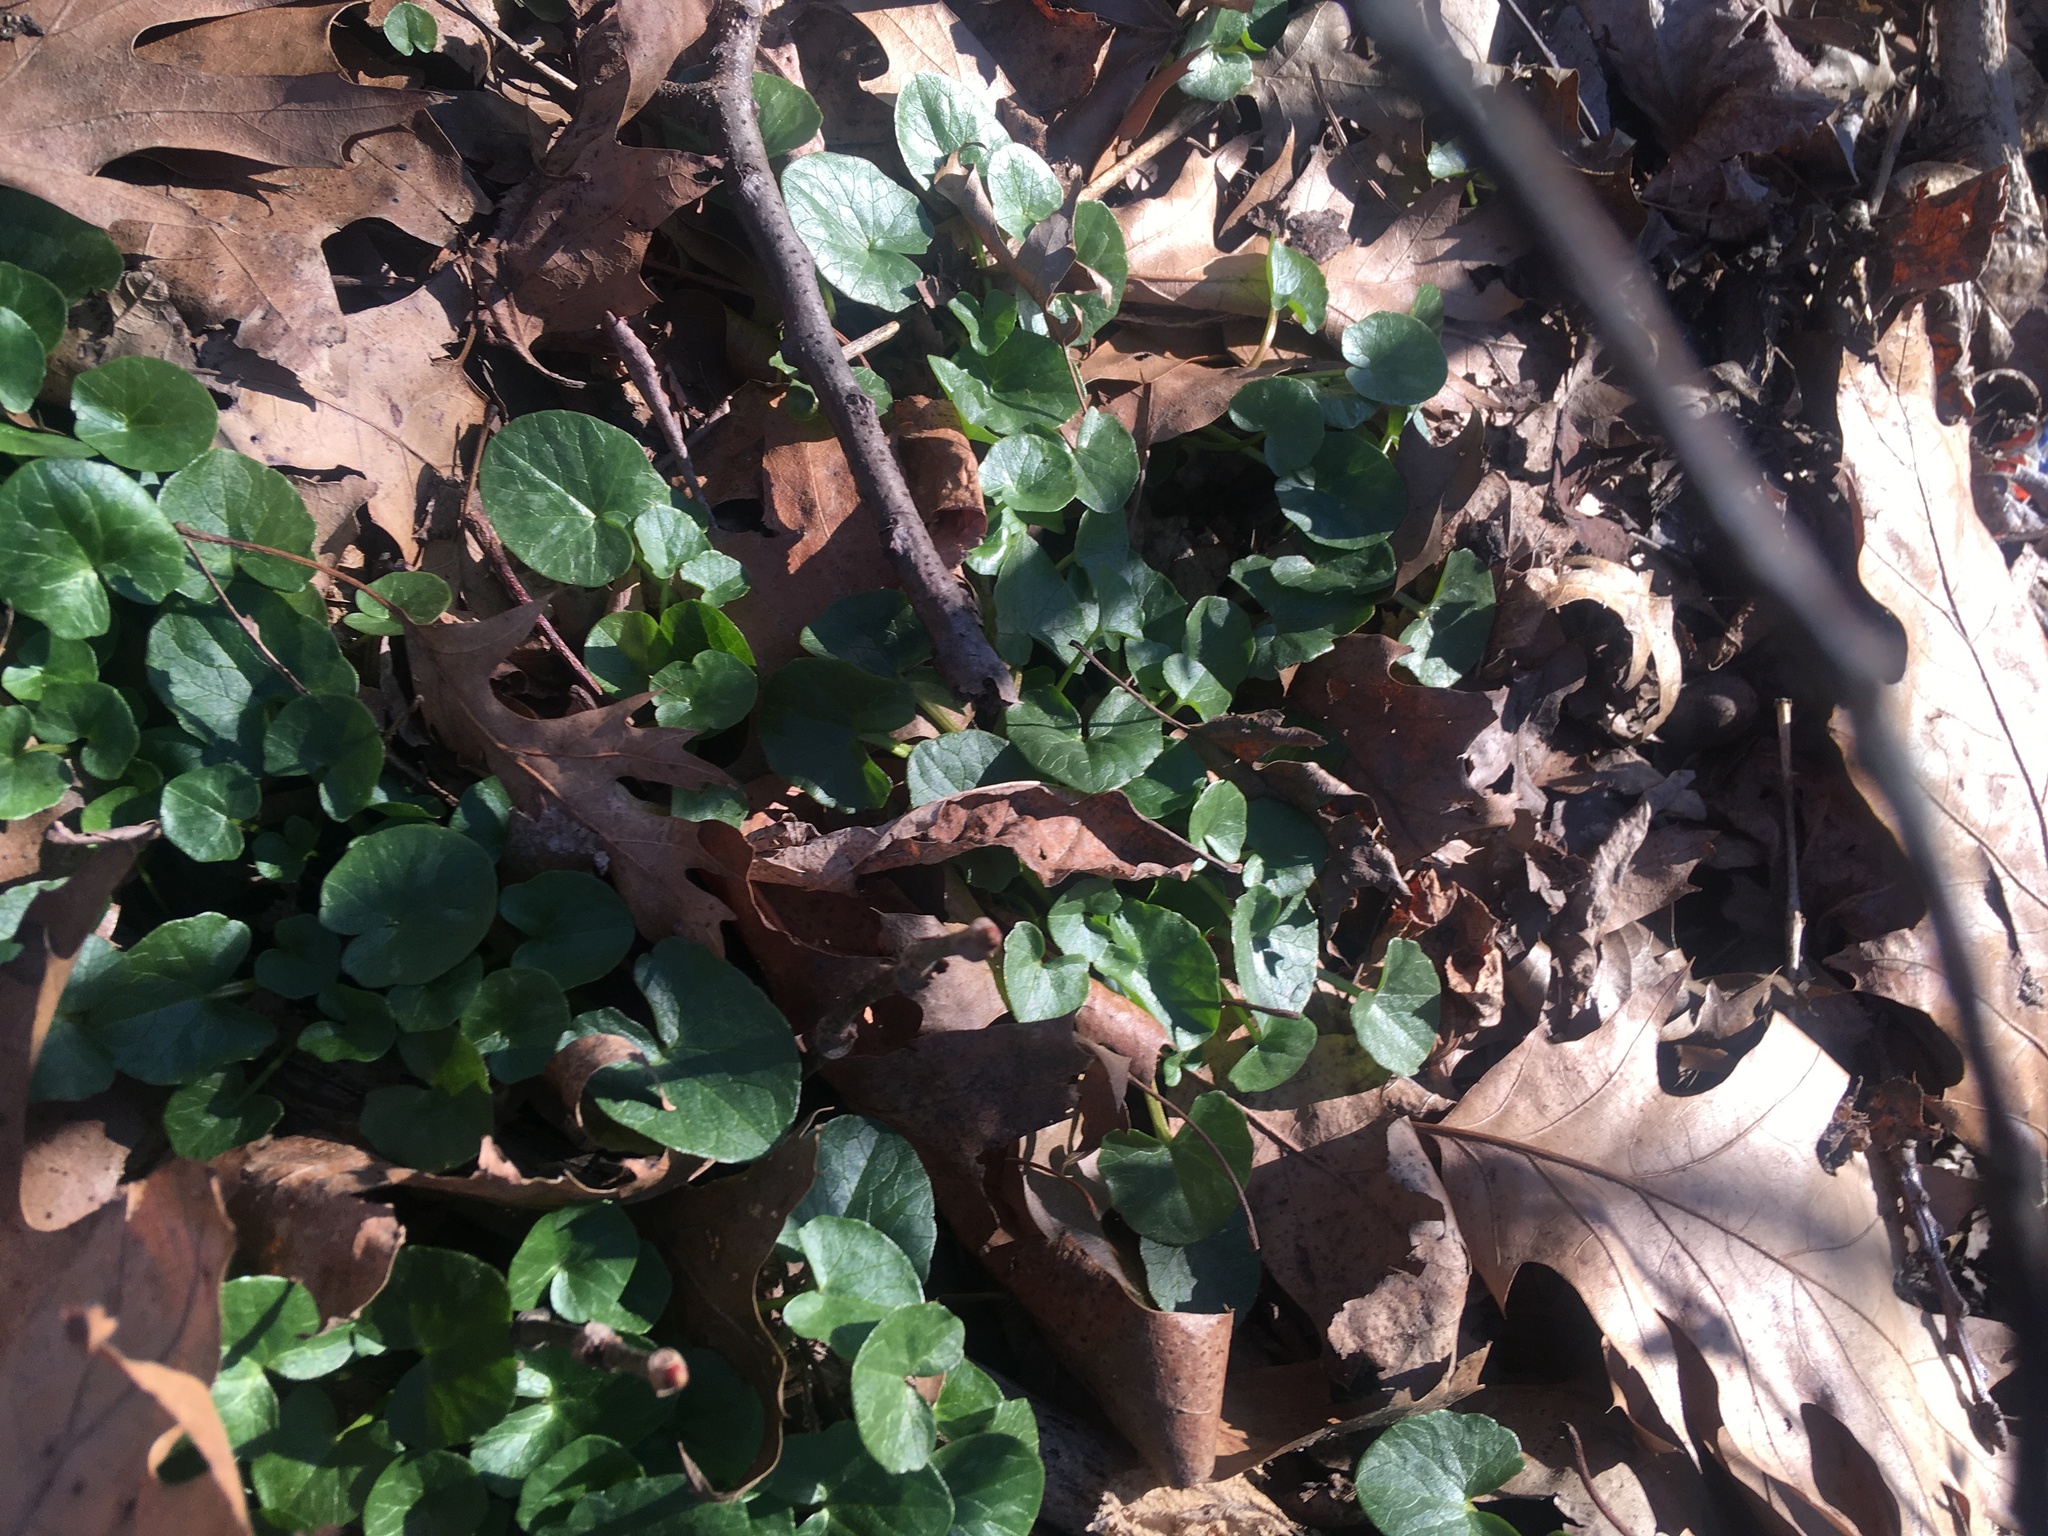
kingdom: Plantae
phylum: Tracheophyta
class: Magnoliopsida
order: Ranunculales
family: Ranunculaceae
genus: Ficaria
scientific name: Ficaria verna
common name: Lesser celandine
